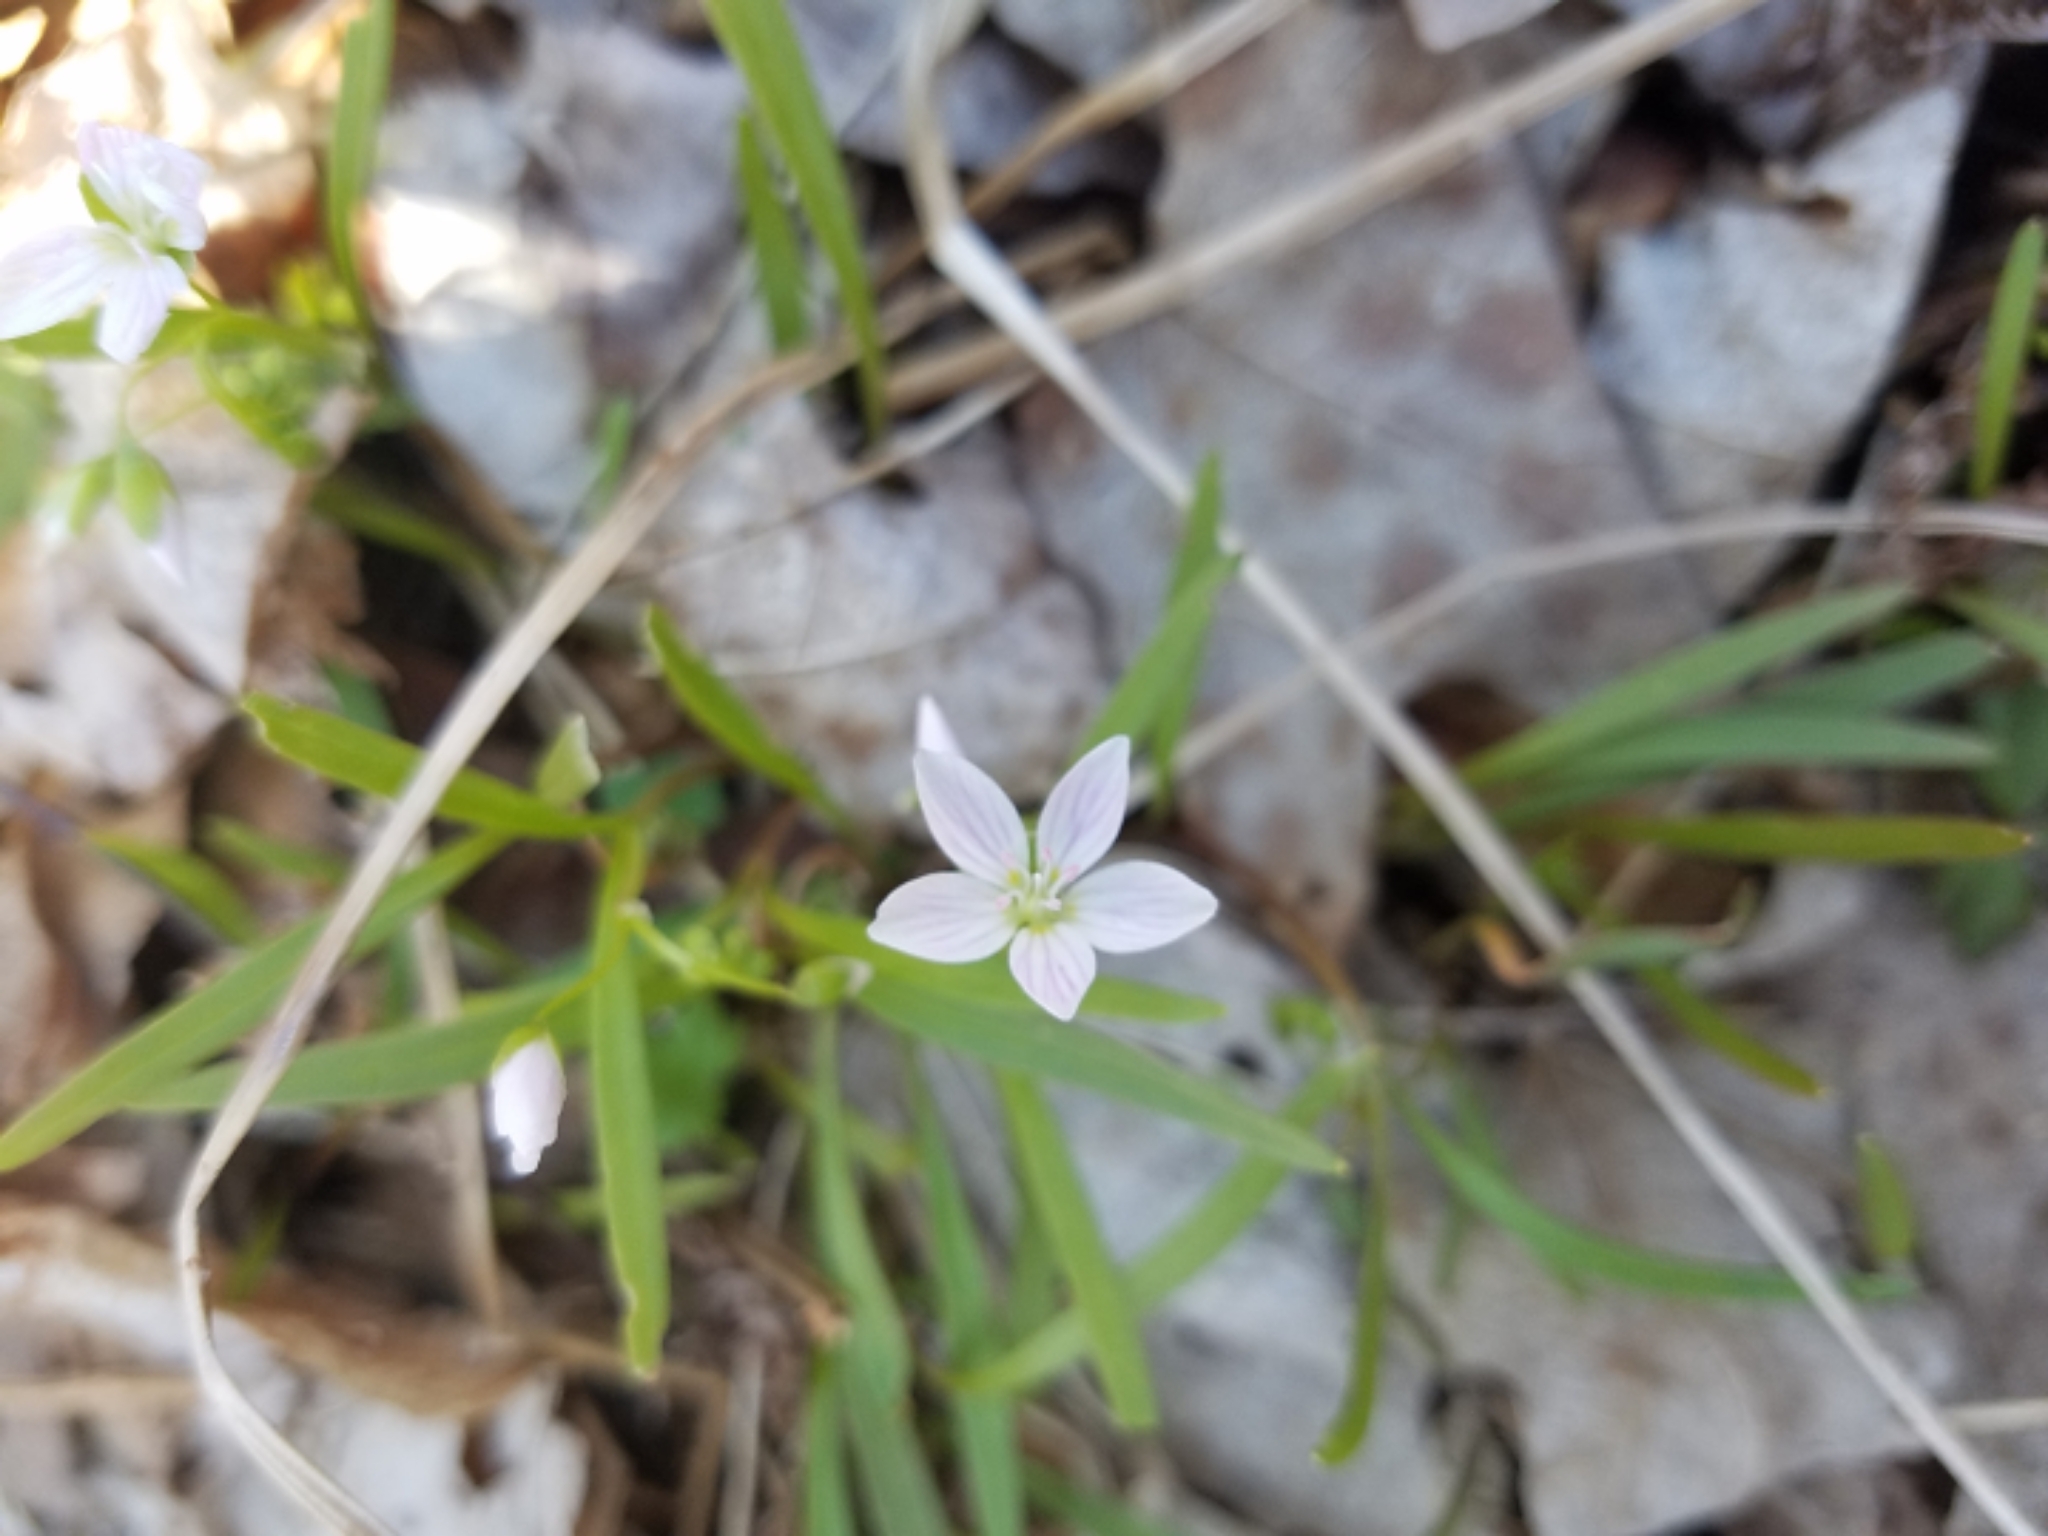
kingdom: Plantae
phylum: Tracheophyta
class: Magnoliopsida
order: Caryophyllales
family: Montiaceae
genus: Claytonia
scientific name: Claytonia virginica
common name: Virginia springbeauty
